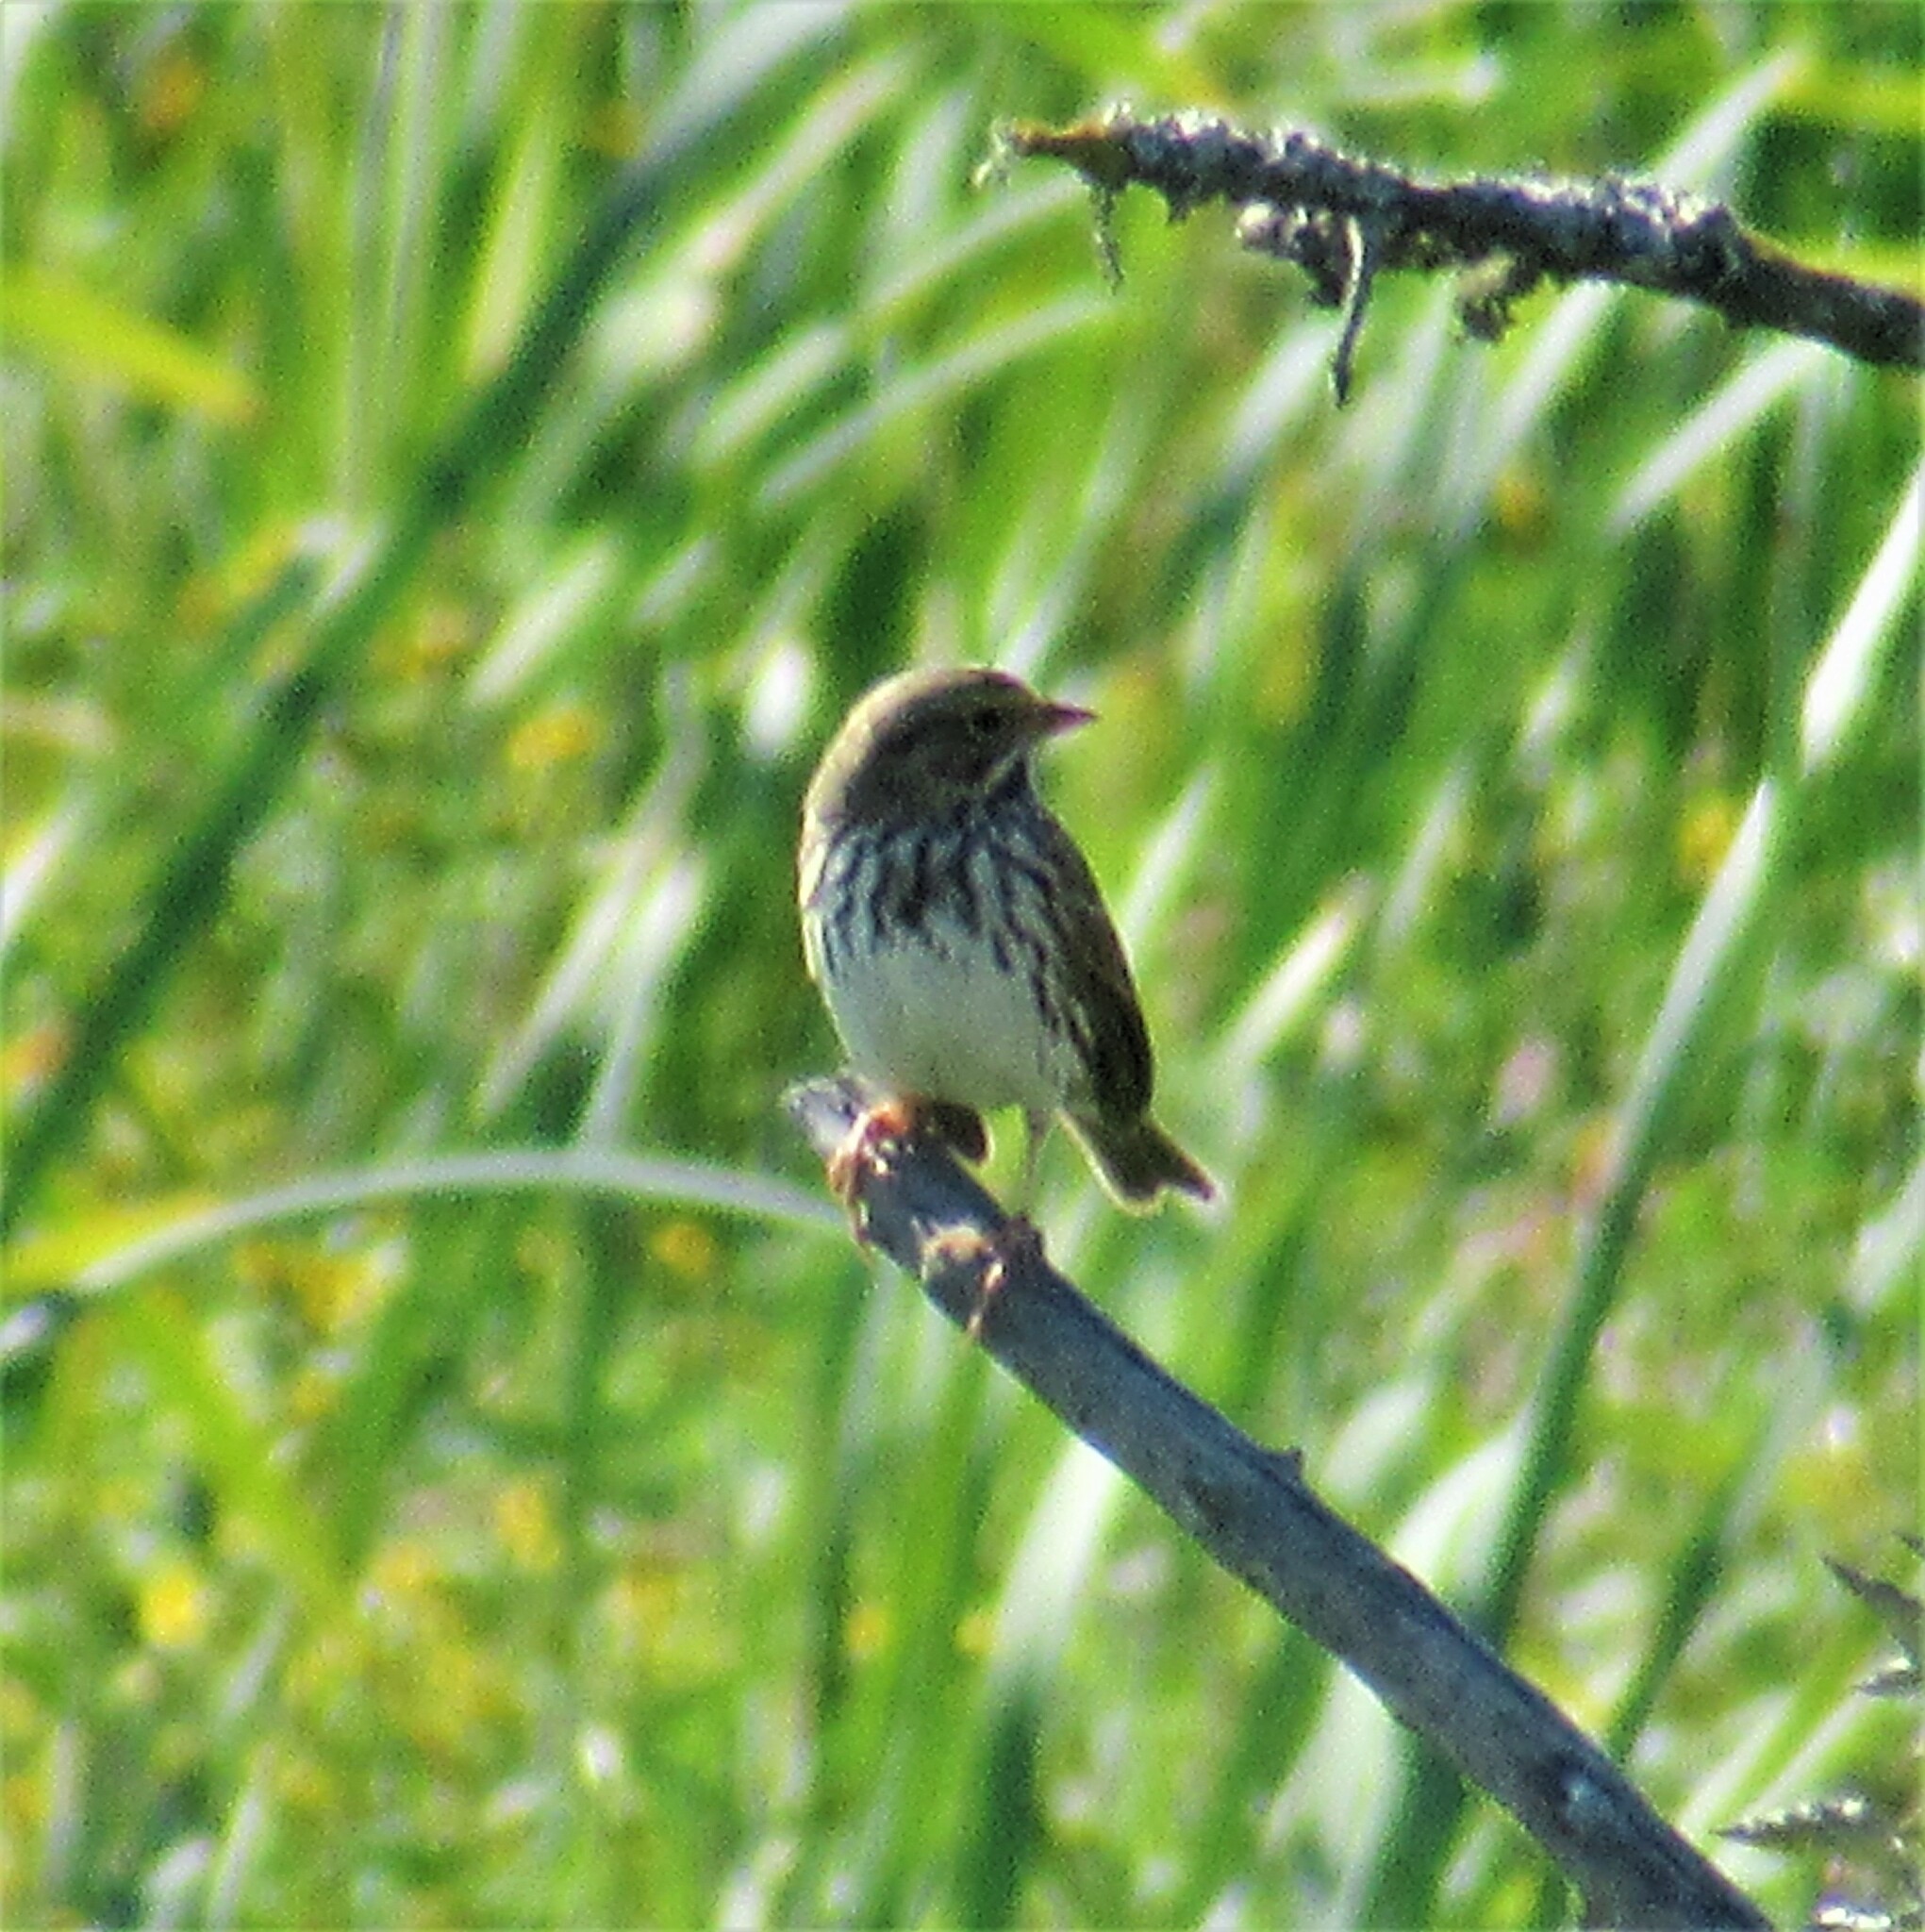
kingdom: Animalia
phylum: Chordata
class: Aves
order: Passeriformes
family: Passerellidae
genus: Passerculus
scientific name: Passerculus sandwichensis
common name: Savannah sparrow
